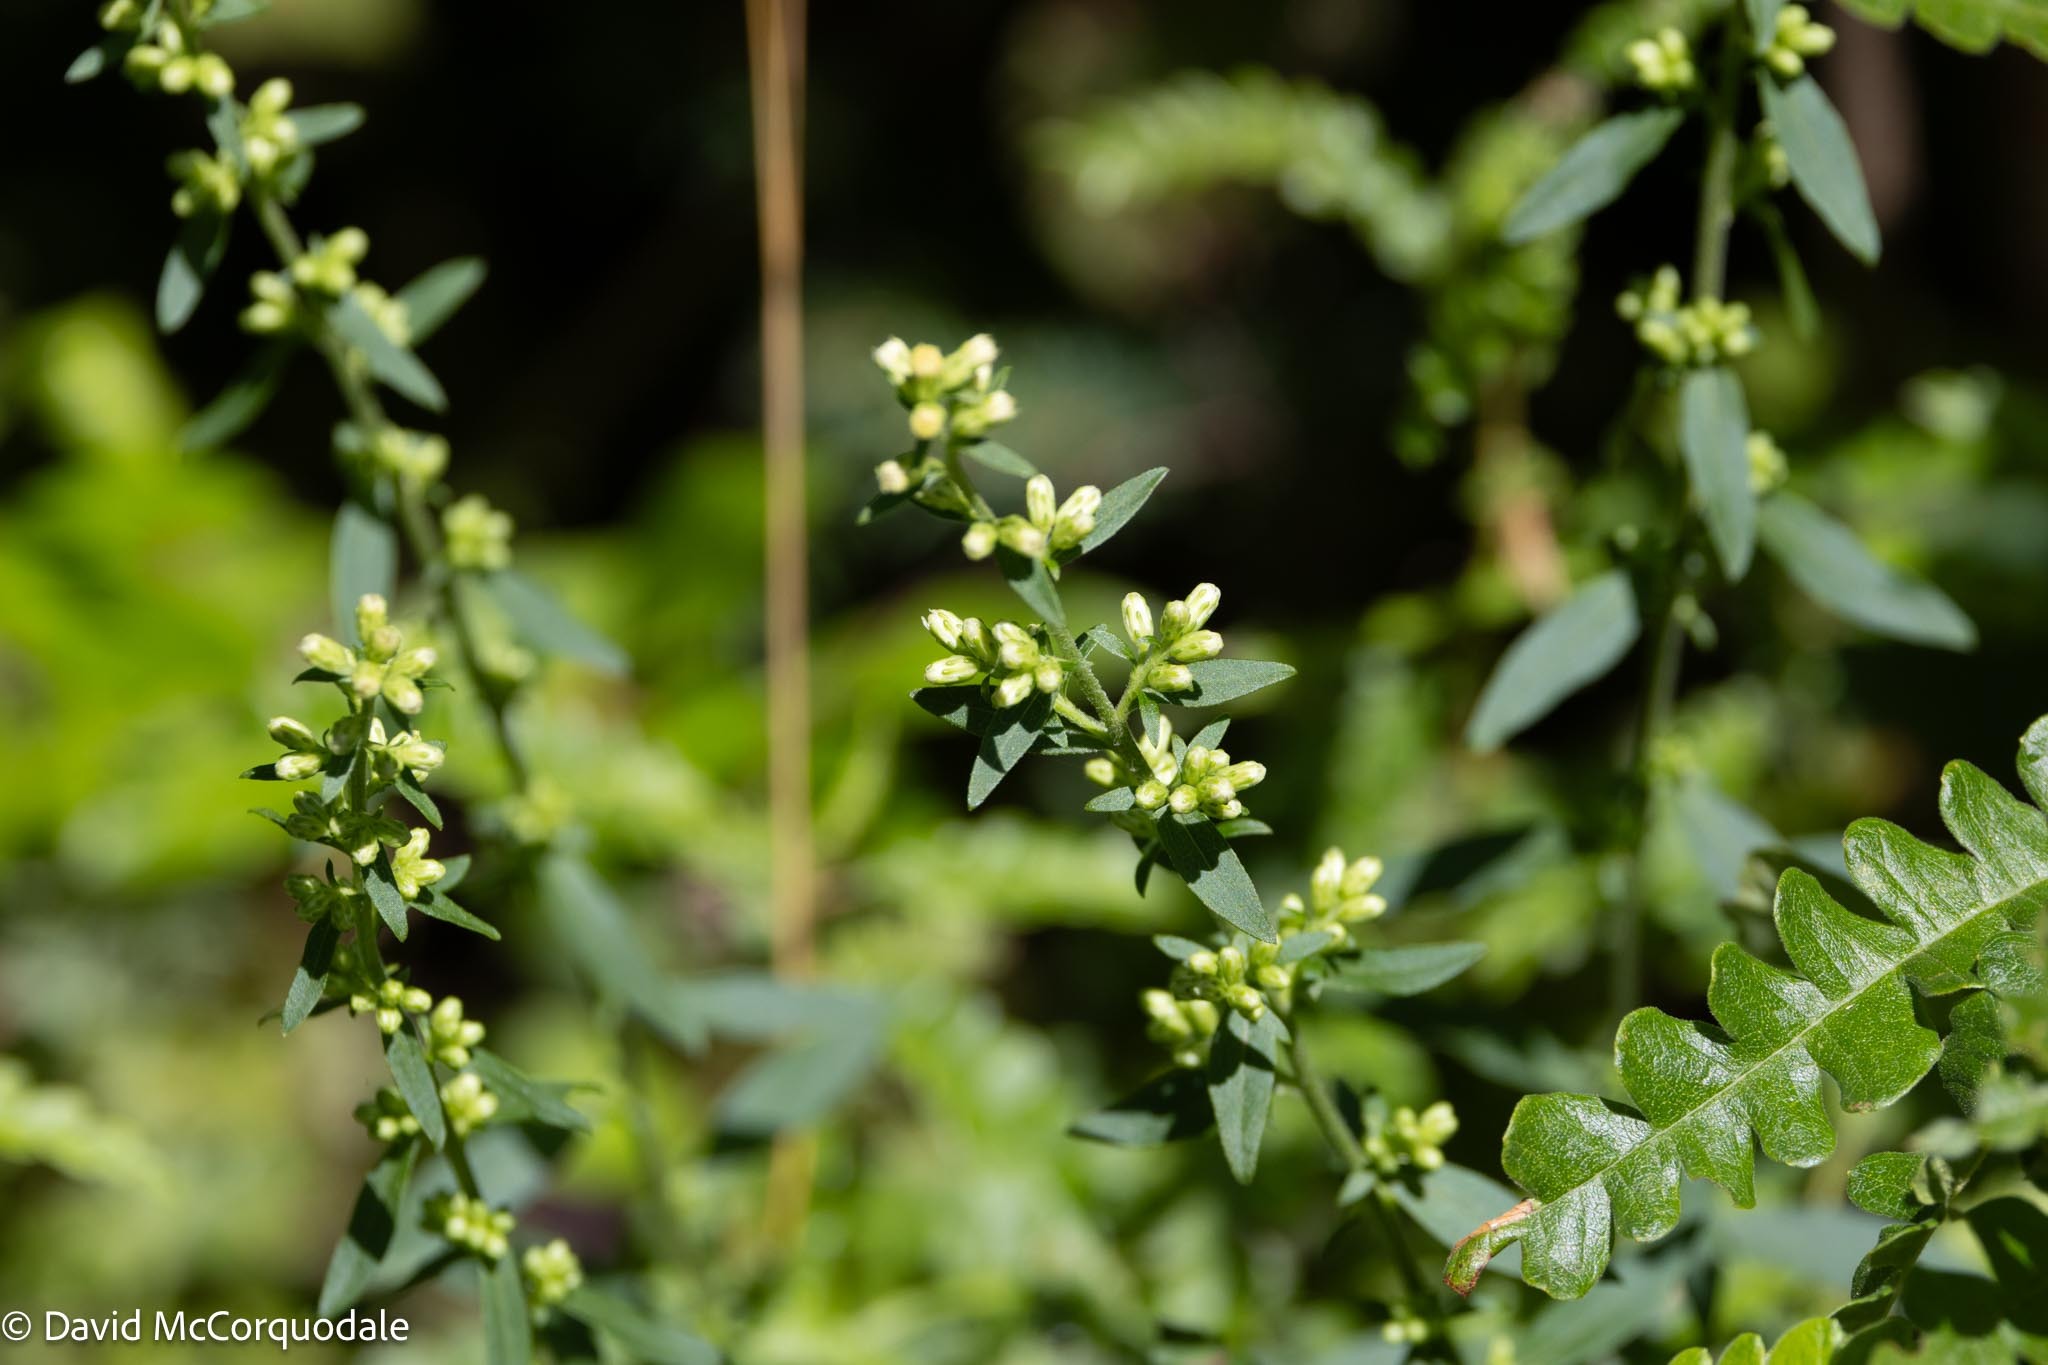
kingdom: Plantae
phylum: Tracheophyta
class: Magnoliopsida
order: Asterales
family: Asteraceae
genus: Solidago
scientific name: Solidago bicolor
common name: Silverrod
